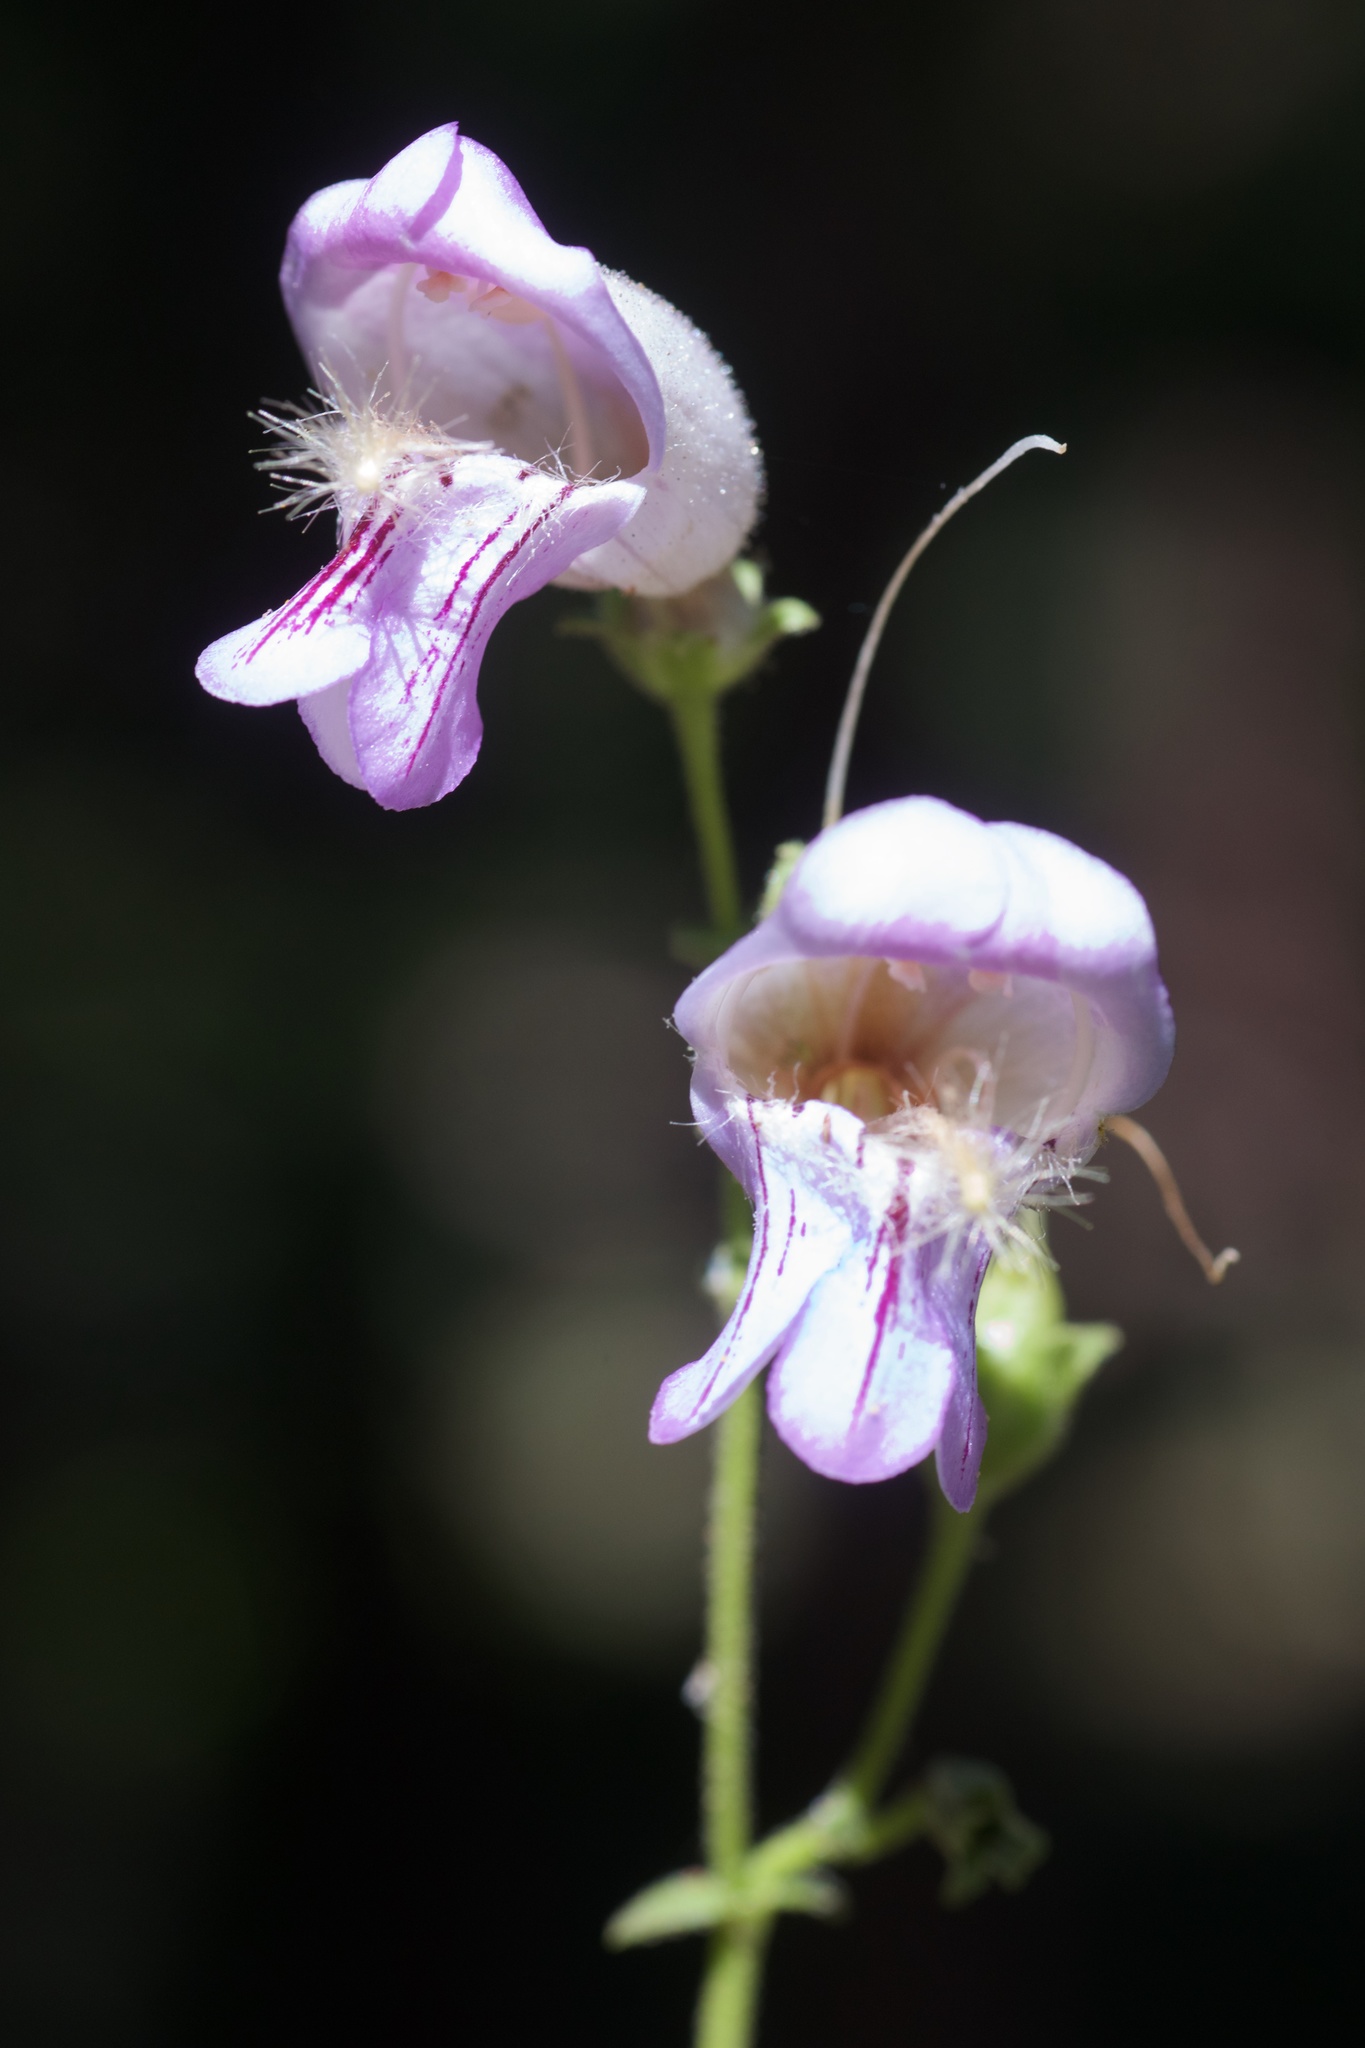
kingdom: Plantae
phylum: Tracheophyta
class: Magnoliopsida
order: Lamiales
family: Plantaginaceae
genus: Penstemon
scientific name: Penstemon grinnellii
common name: Grinnell's beardtongue
